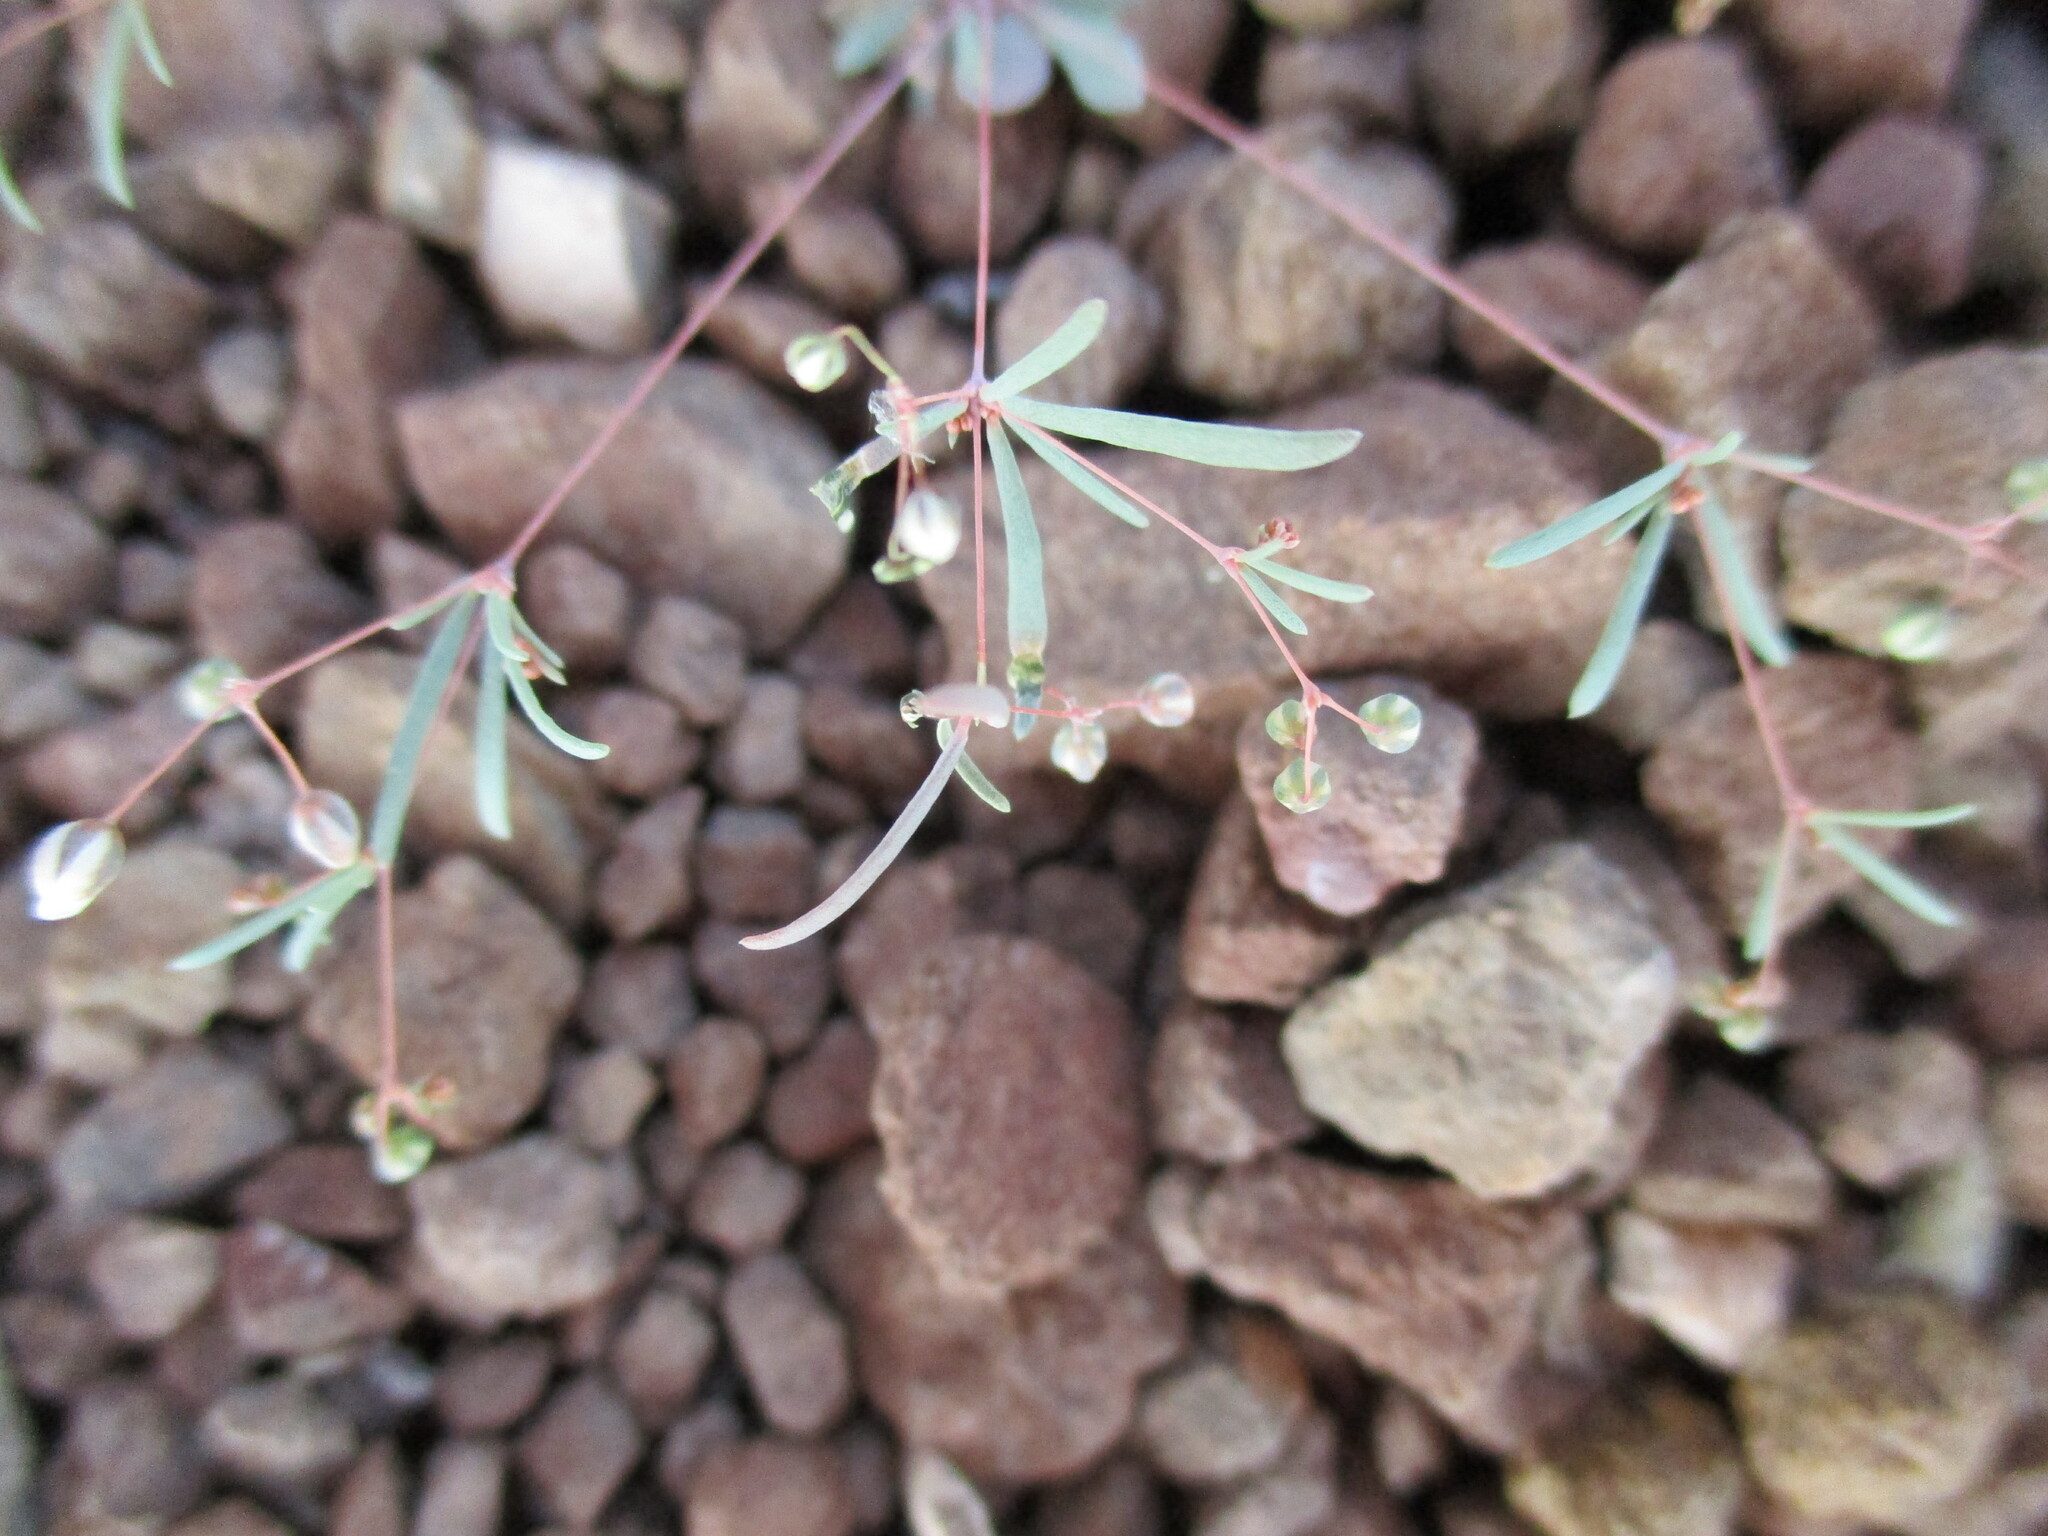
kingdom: Plantae
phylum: Tracheophyta
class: Magnoliopsida
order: Caryophyllales
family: Molluginaceae
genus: Hypertelis
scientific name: Hypertelis cerviana
